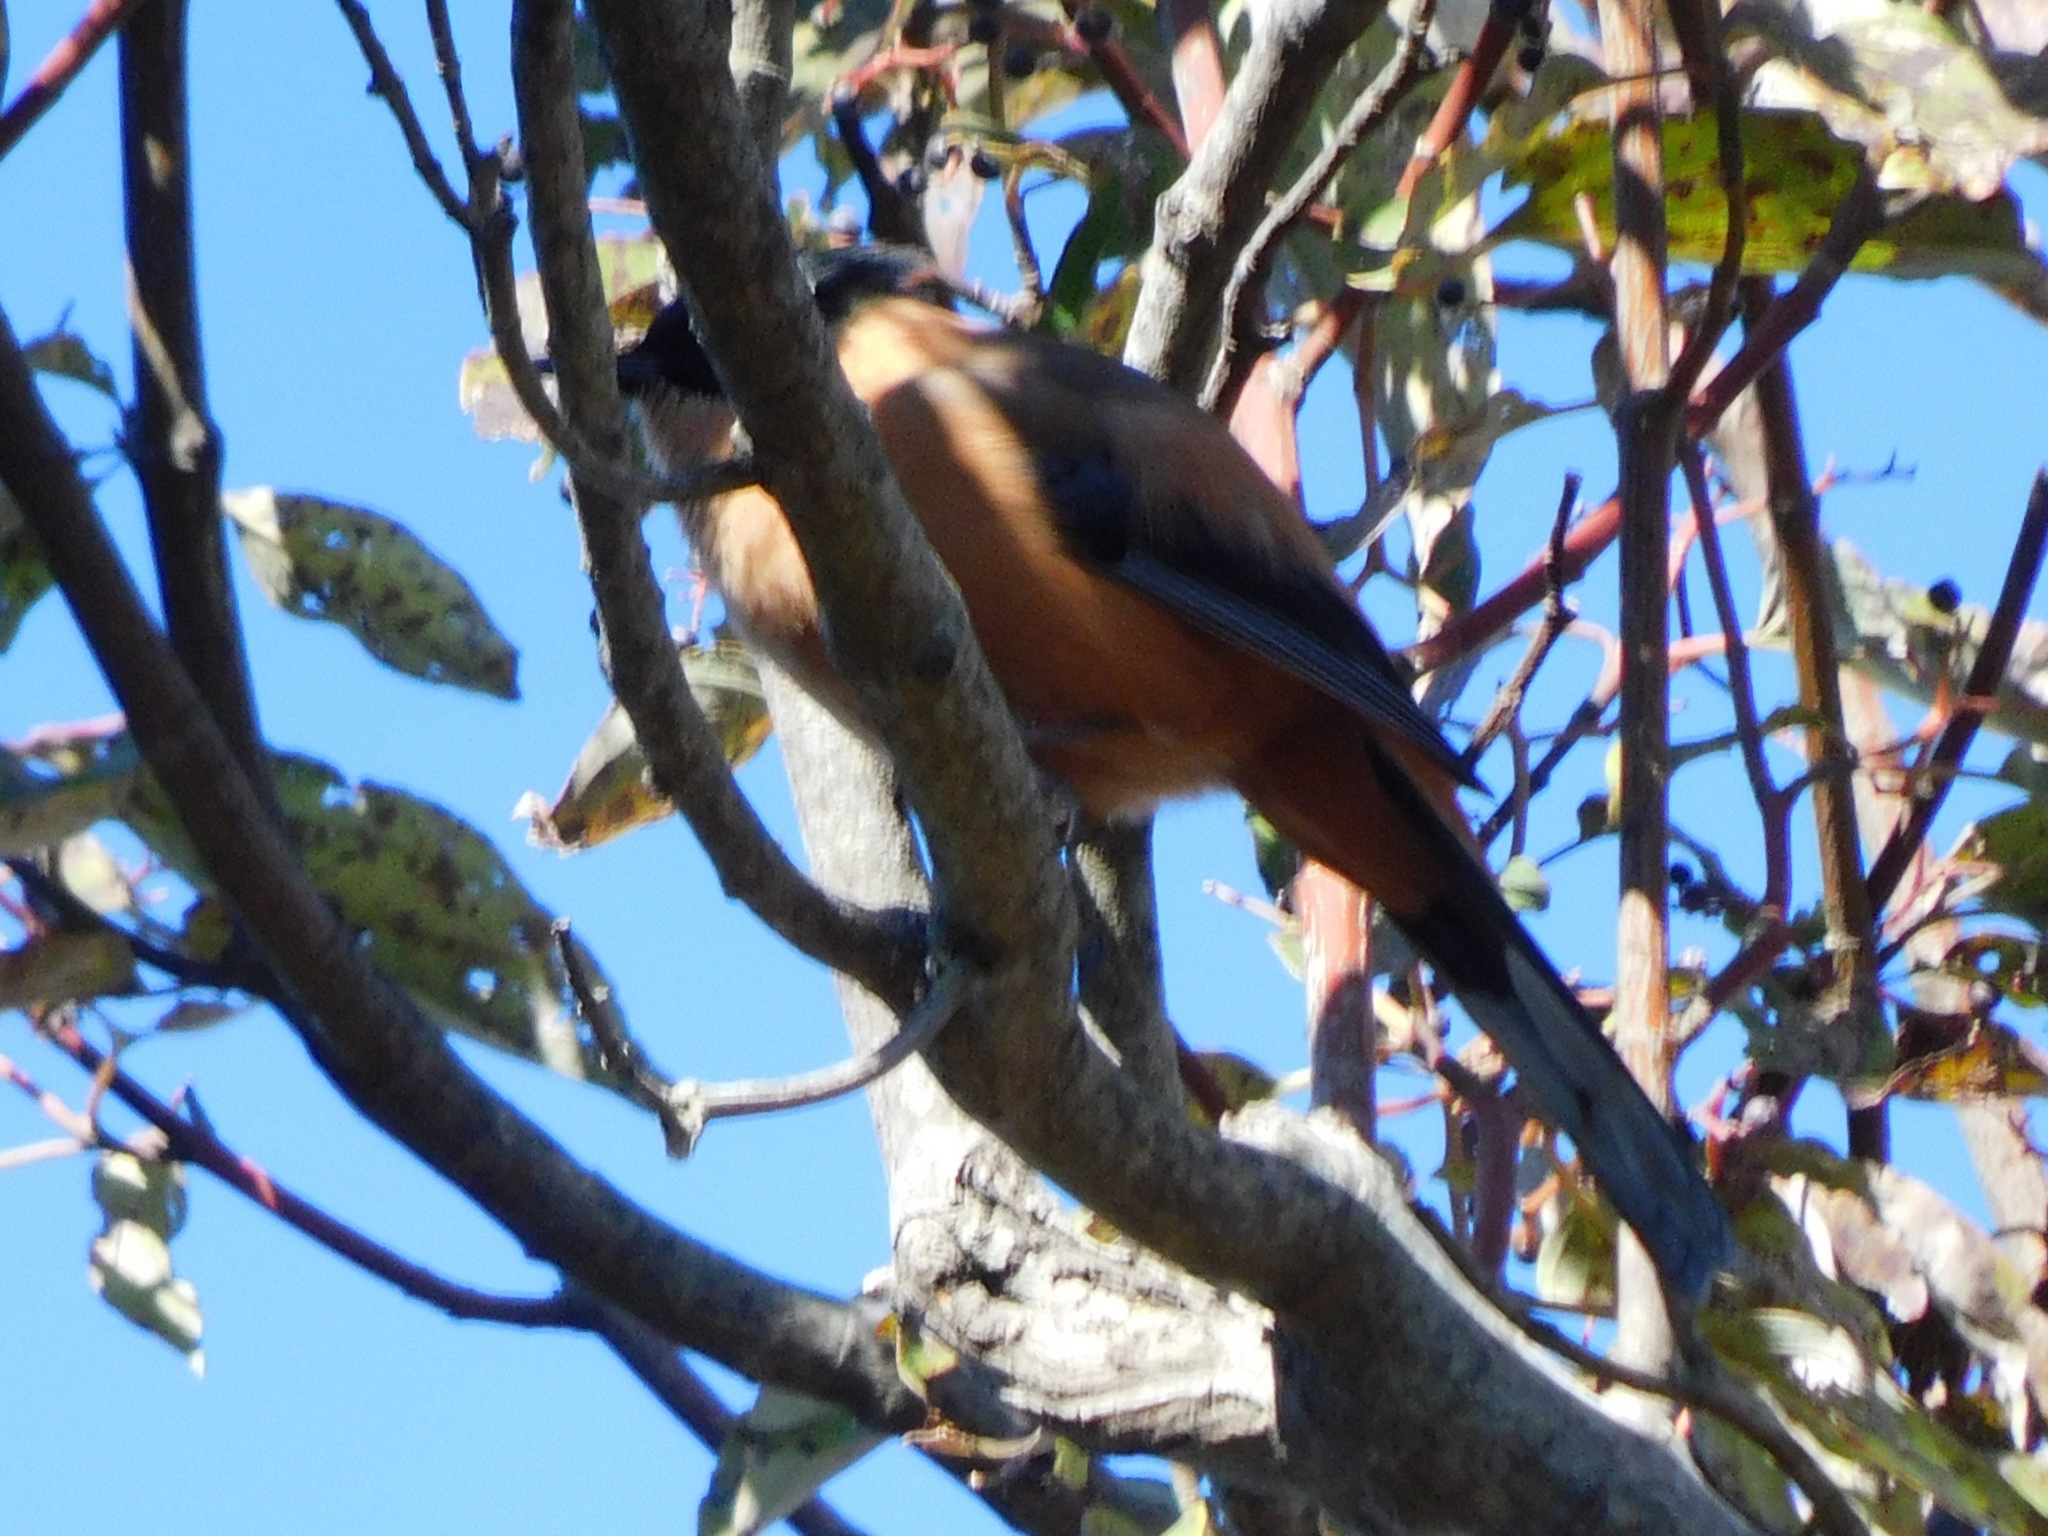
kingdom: Animalia
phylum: Chordata
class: Aves
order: Passeriformes
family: Leiothrichidae
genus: Heterophasia
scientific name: Heterophasia capistrata
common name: Rufous sibia
